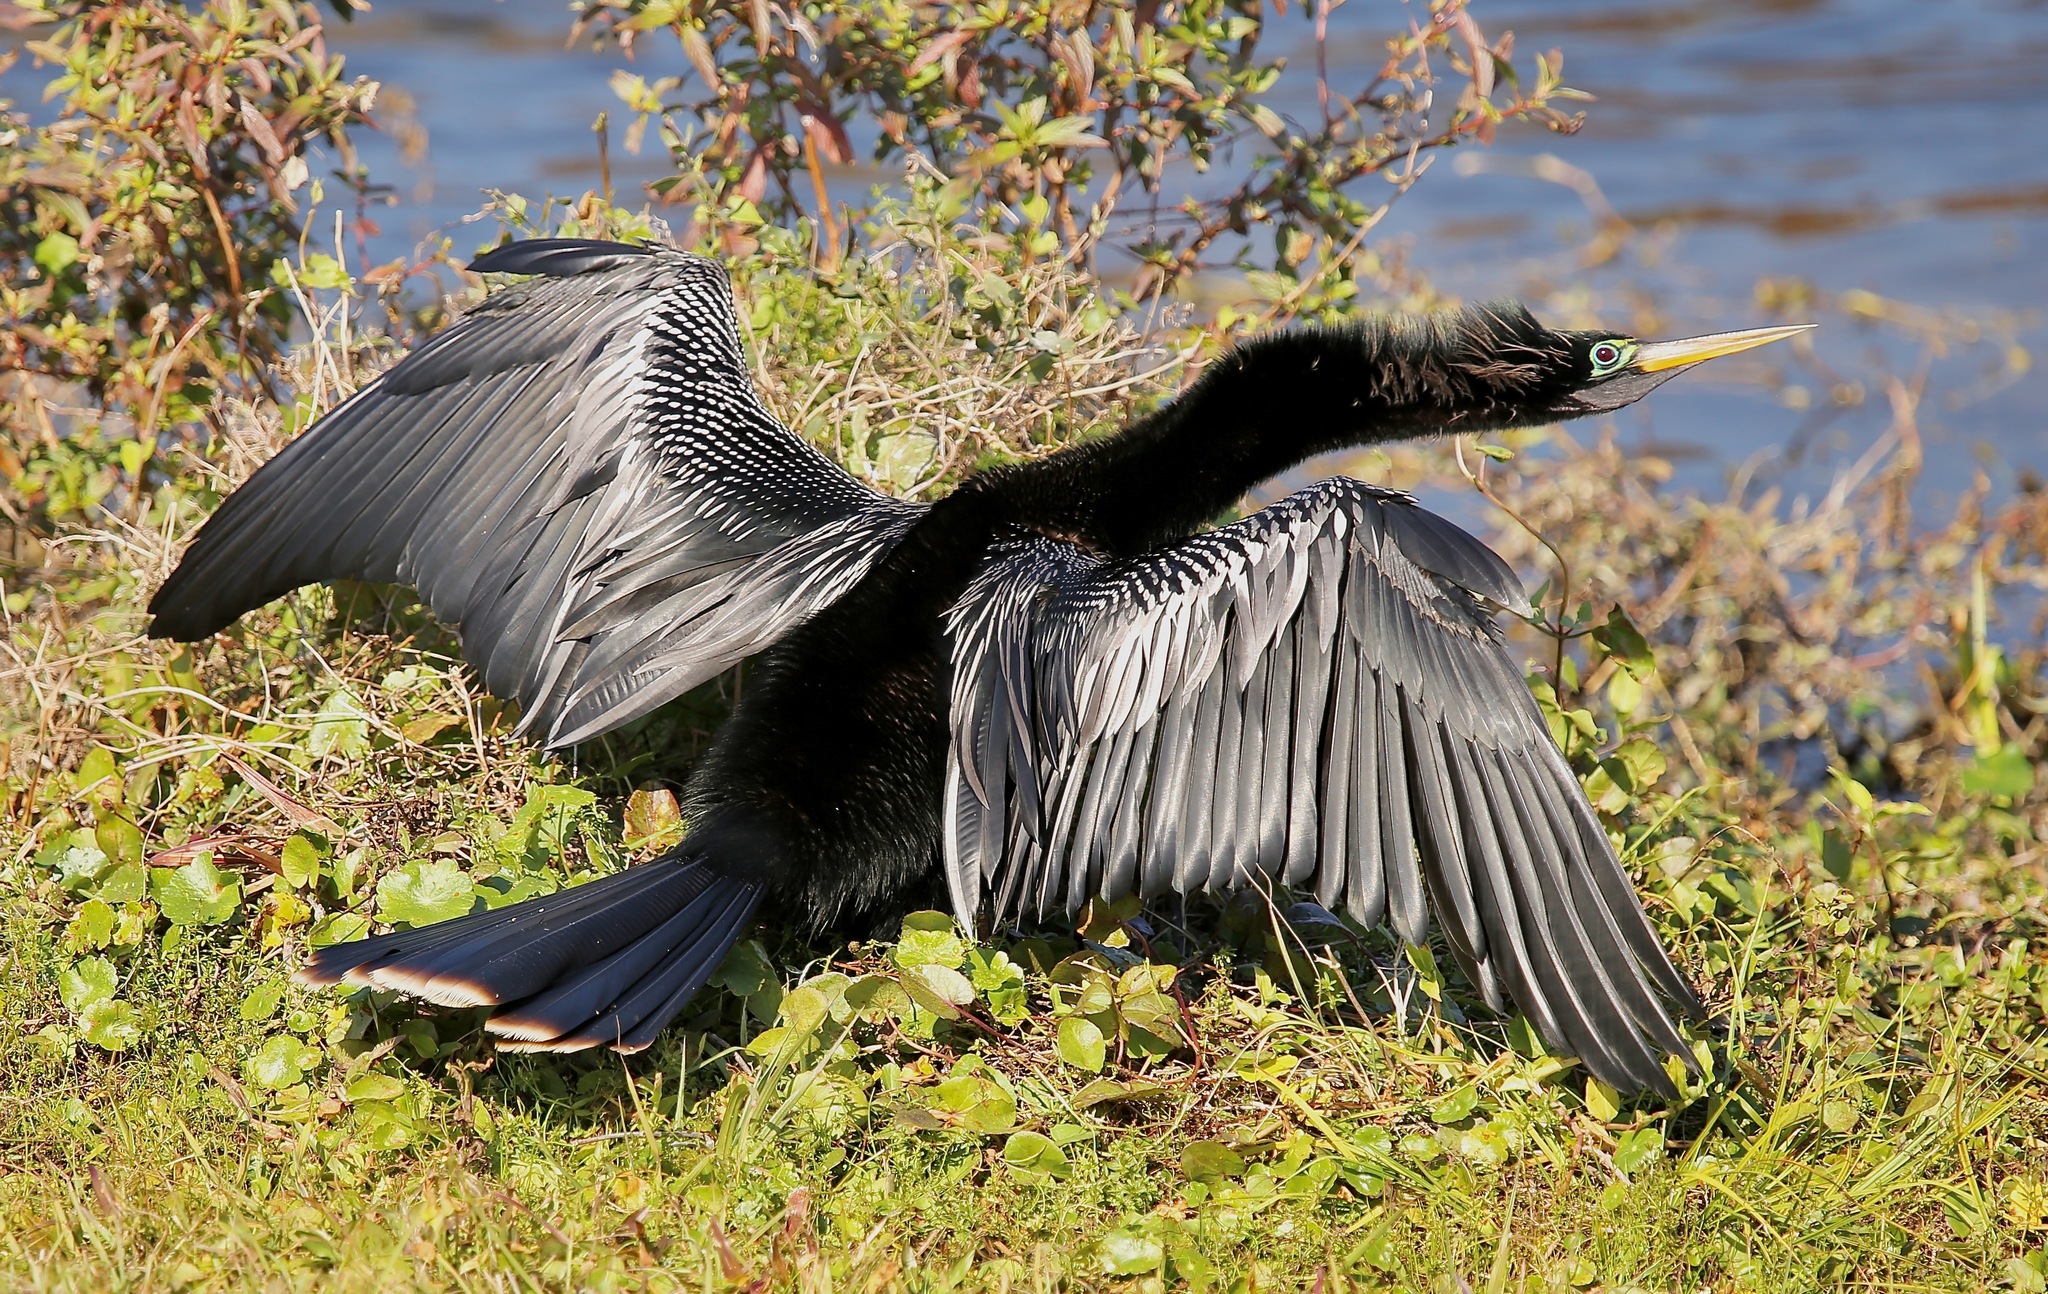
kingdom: Animalia
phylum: Chordata
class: Aves
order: Suliformes
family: Anhingidae
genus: Anhinga
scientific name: Anhinga anhinga
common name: Anhinga
